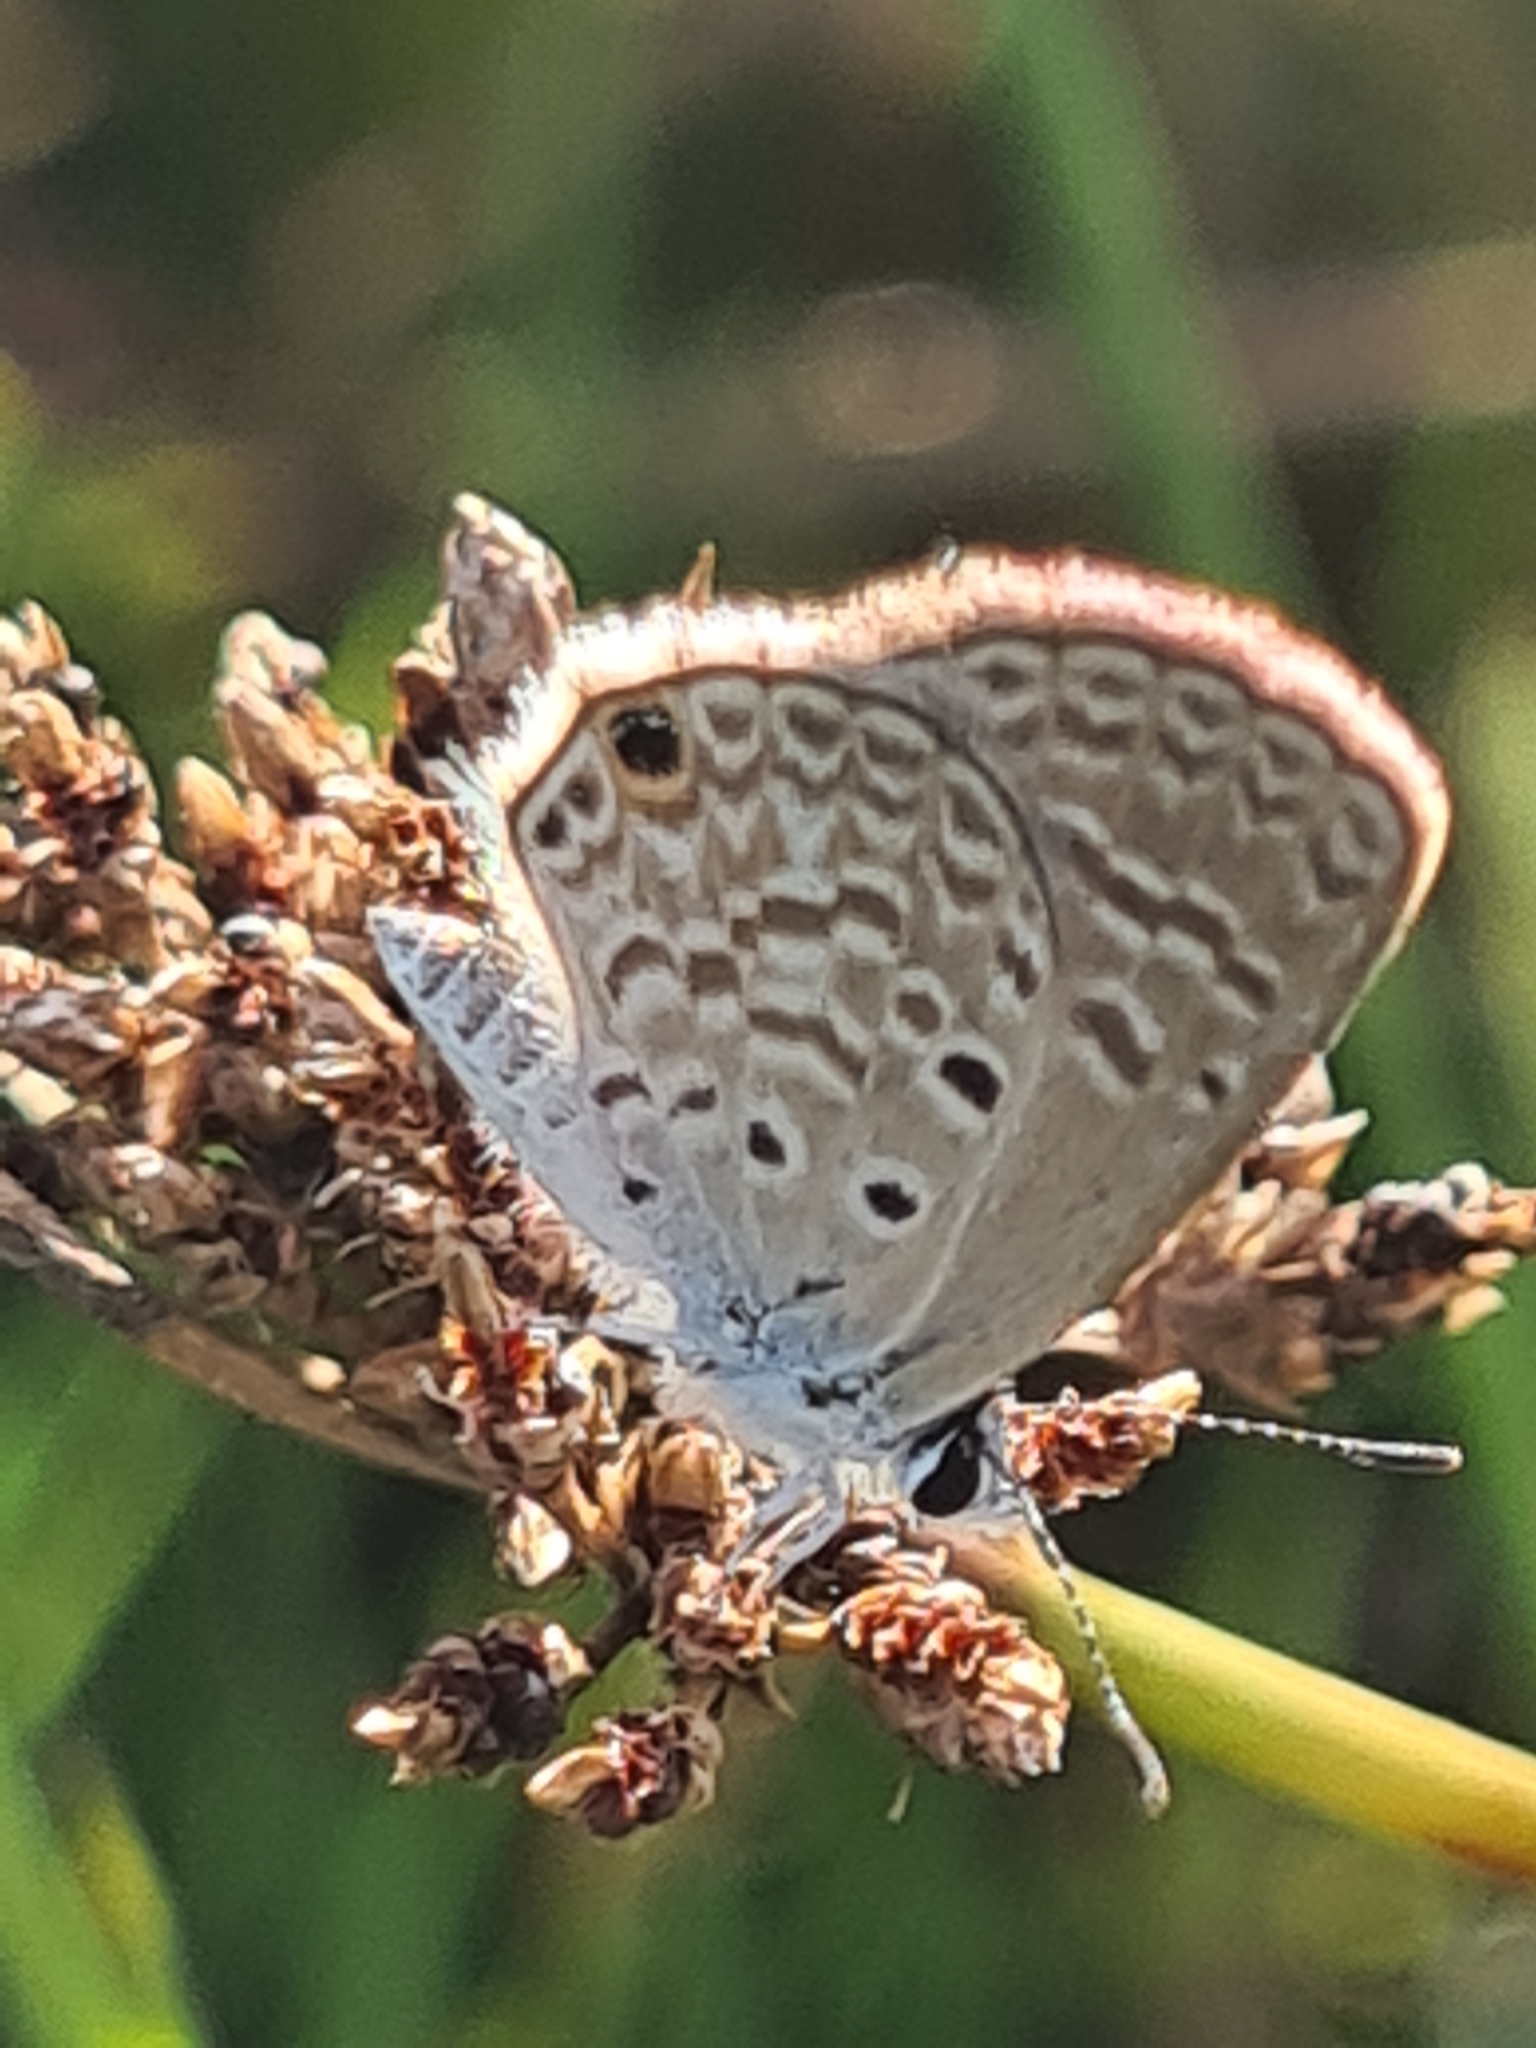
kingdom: Animalia
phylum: Arthropoda
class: Insecta
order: Lepidoptera
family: Lycaenidae
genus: Hemiargus
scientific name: Hemiargus hanno
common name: Common blue
